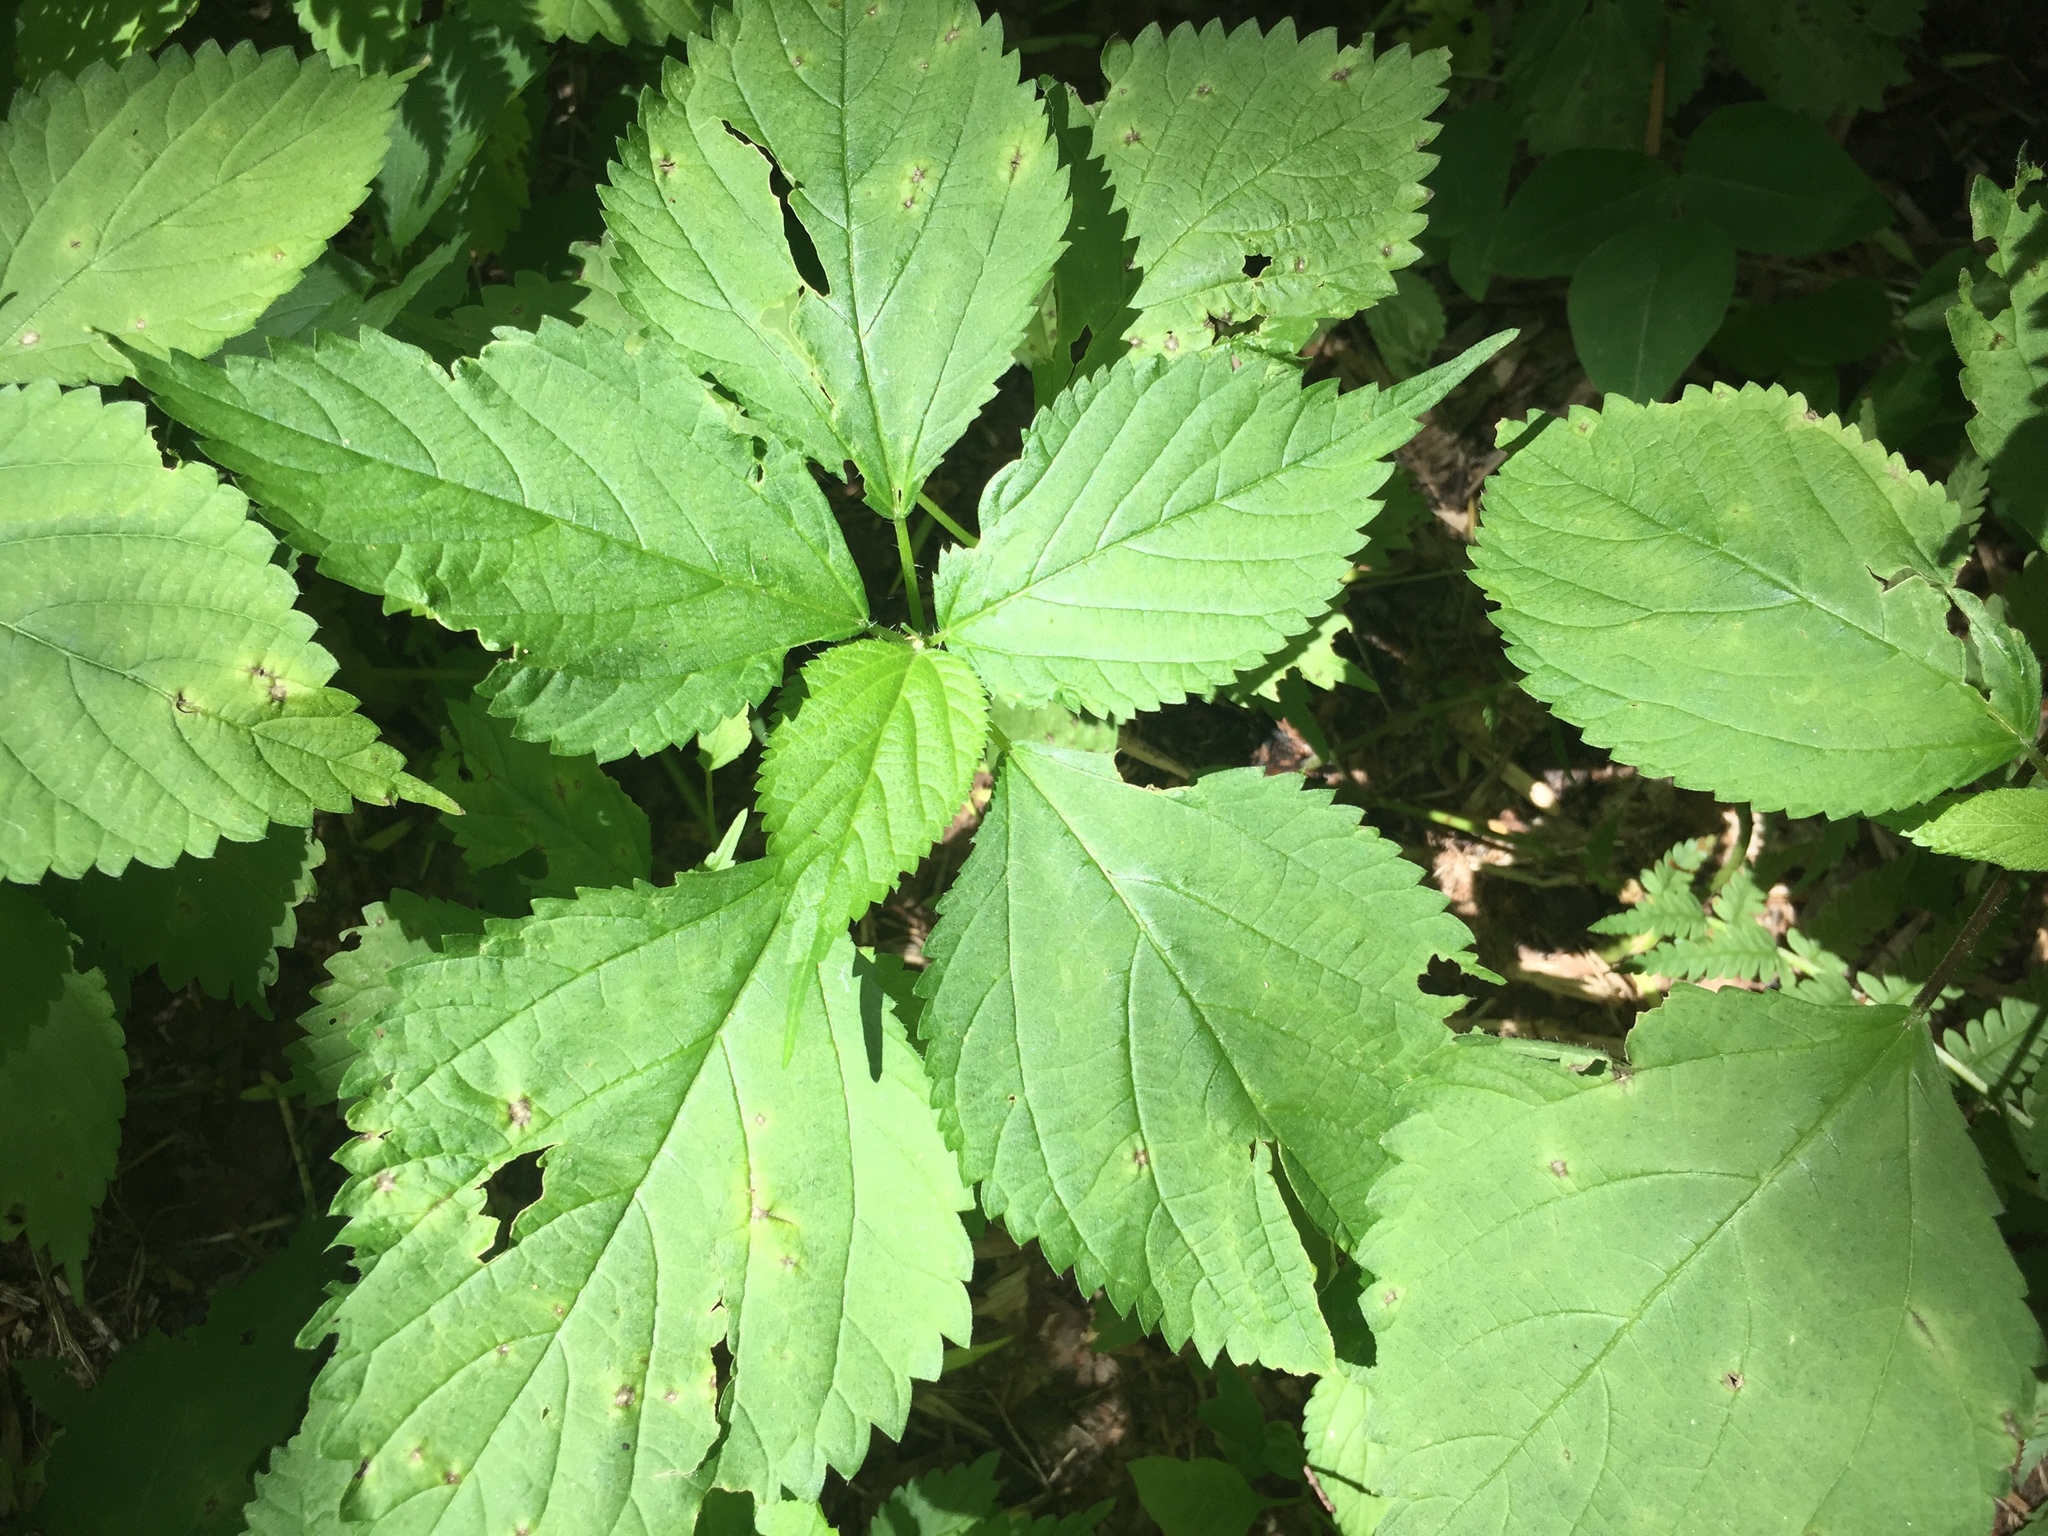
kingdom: Plantae
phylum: Tracheophyta
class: Magnoliopsida
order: Rosales
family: Urticaceae
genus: Laportea
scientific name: Laportea canadensis
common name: Canada nettle
